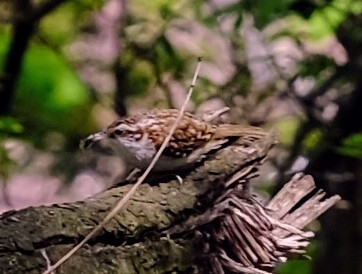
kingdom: Animalia
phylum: Chordata
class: Aves
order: Passeriformes
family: Certhiidae
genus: Certhia
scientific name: Certhia familiaris
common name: Eurasian treecreeper
